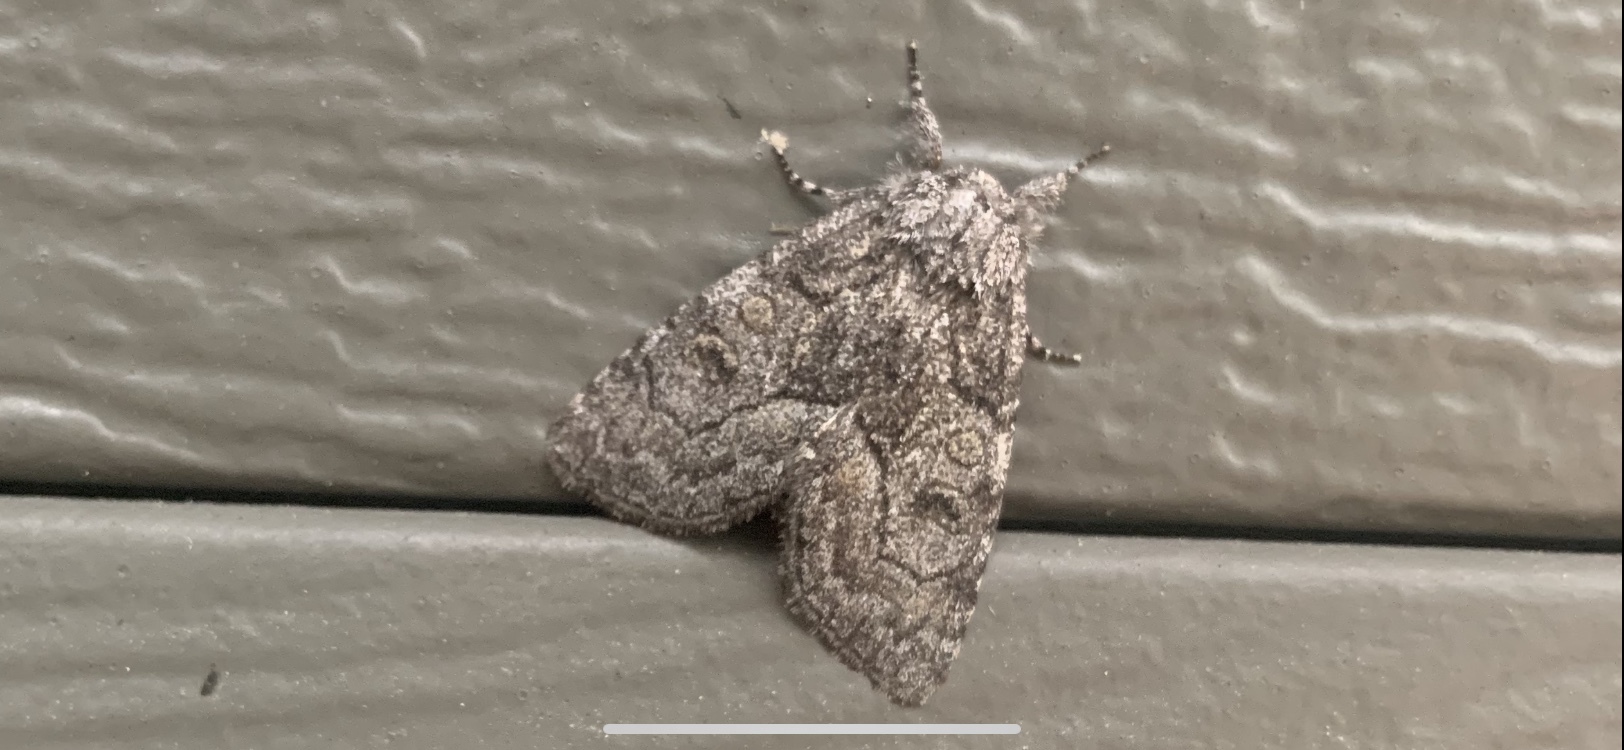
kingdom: Animalia
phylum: Arthropoda
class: Insecta
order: Lepidoptera
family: Noctuidae
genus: Raphia
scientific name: Raphia frater
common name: Brother
